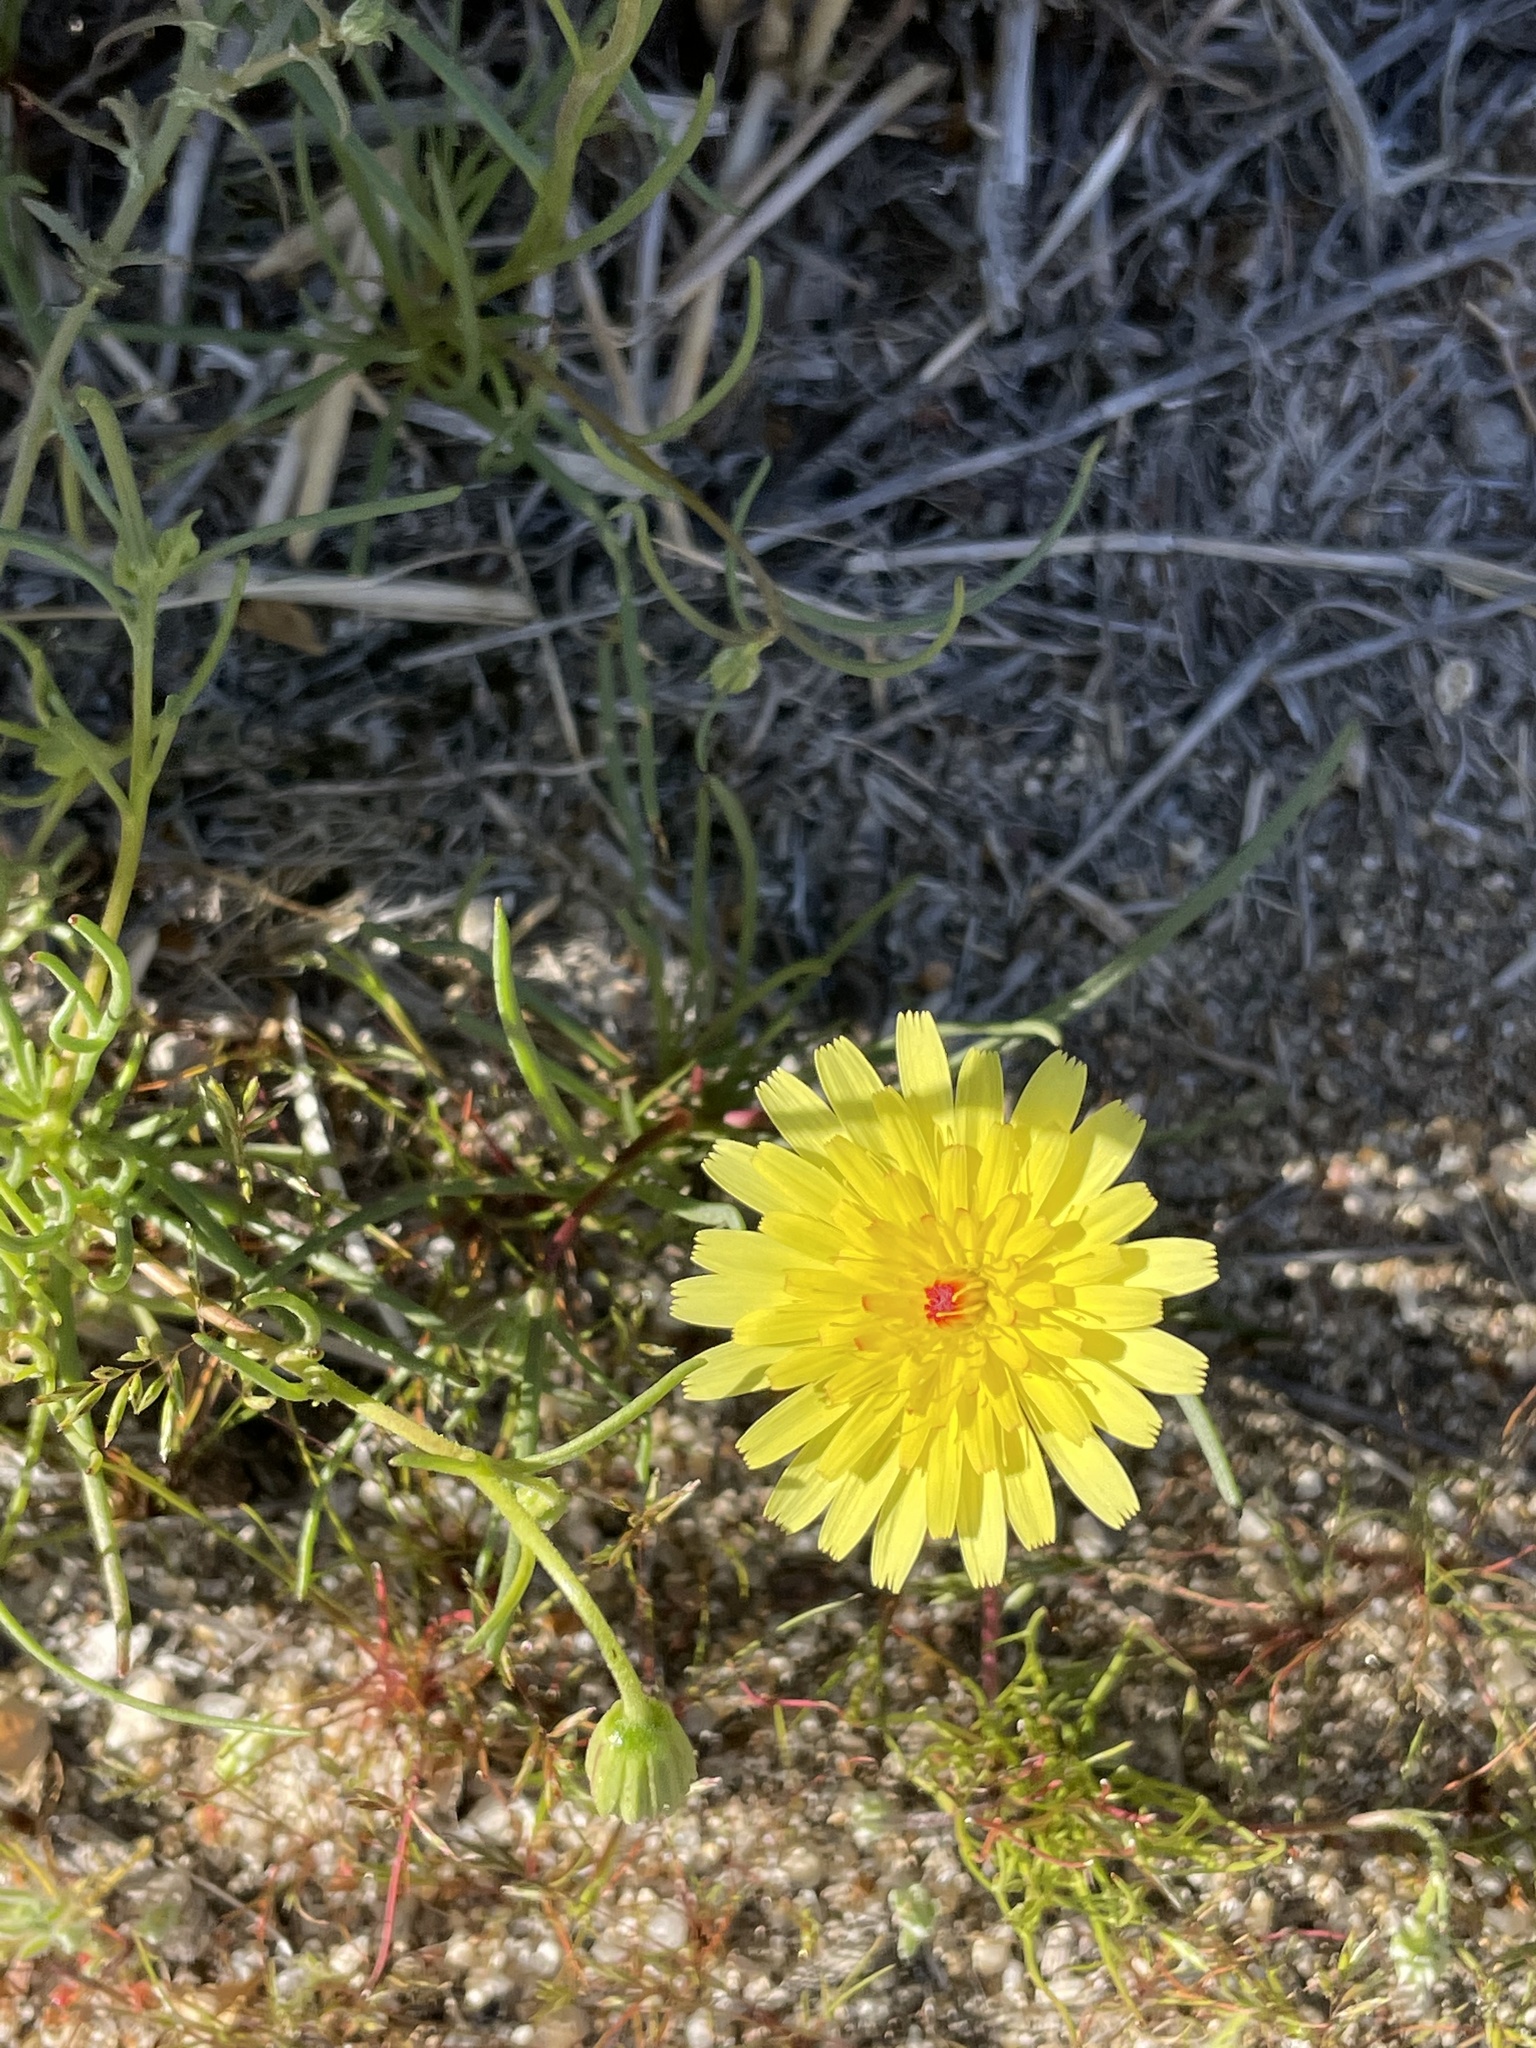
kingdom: Plantae
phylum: Tracheophyta
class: Magnoliopsida
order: Asterales
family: Asteraceae
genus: Malacothrix
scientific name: Malacothrix glabrata
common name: Smooth desert-dandelion
